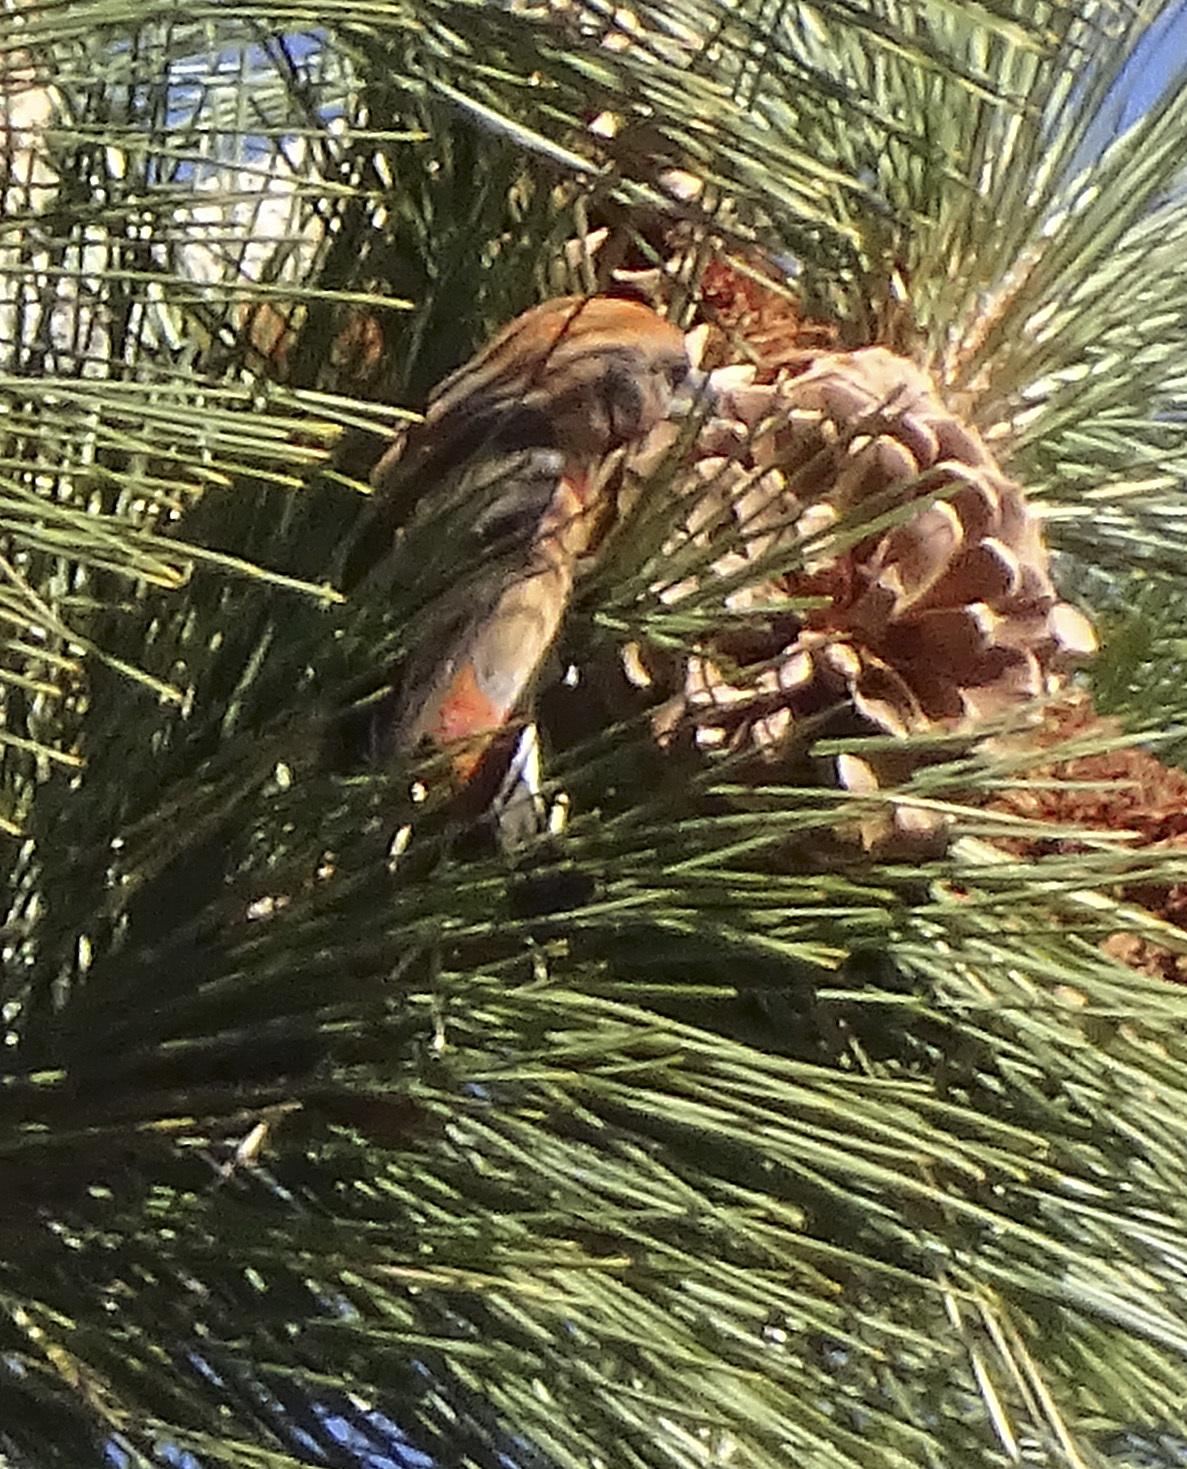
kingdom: Animalia
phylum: Chordata
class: Aves
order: Passeriformes
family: Fringillidae
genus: Loxia
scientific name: Loxia curvirostra
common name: Red crossbill
